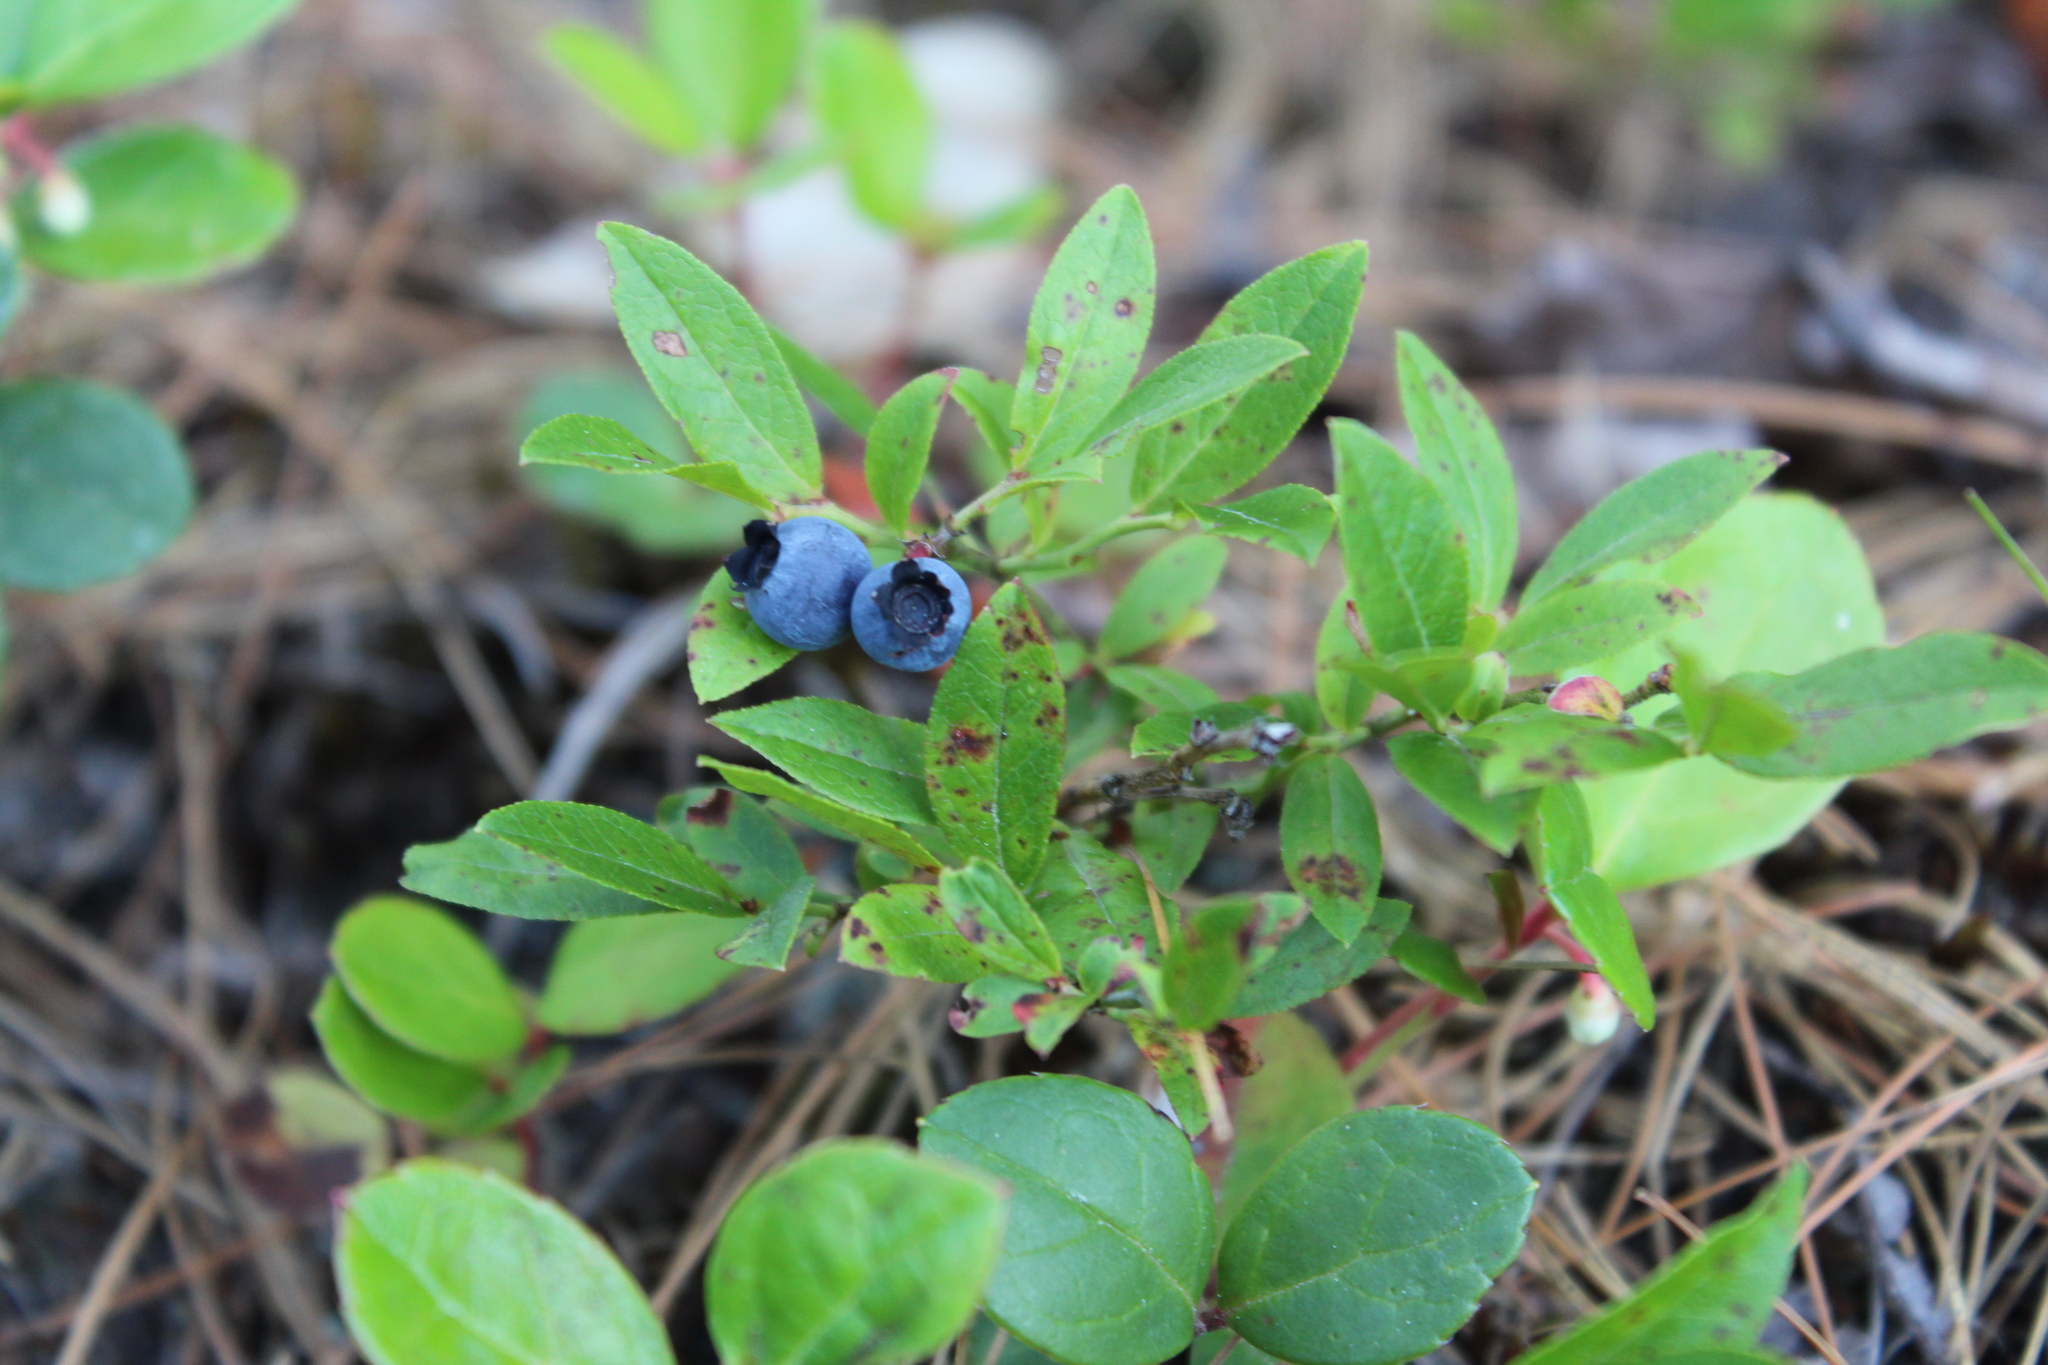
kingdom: Plantae
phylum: Tracheophyta
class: Magnoliopsida
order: Ericales
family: Ericaceae
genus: Vaccinium
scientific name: Vaccinium angustifolium
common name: Early lowbush blueberry
